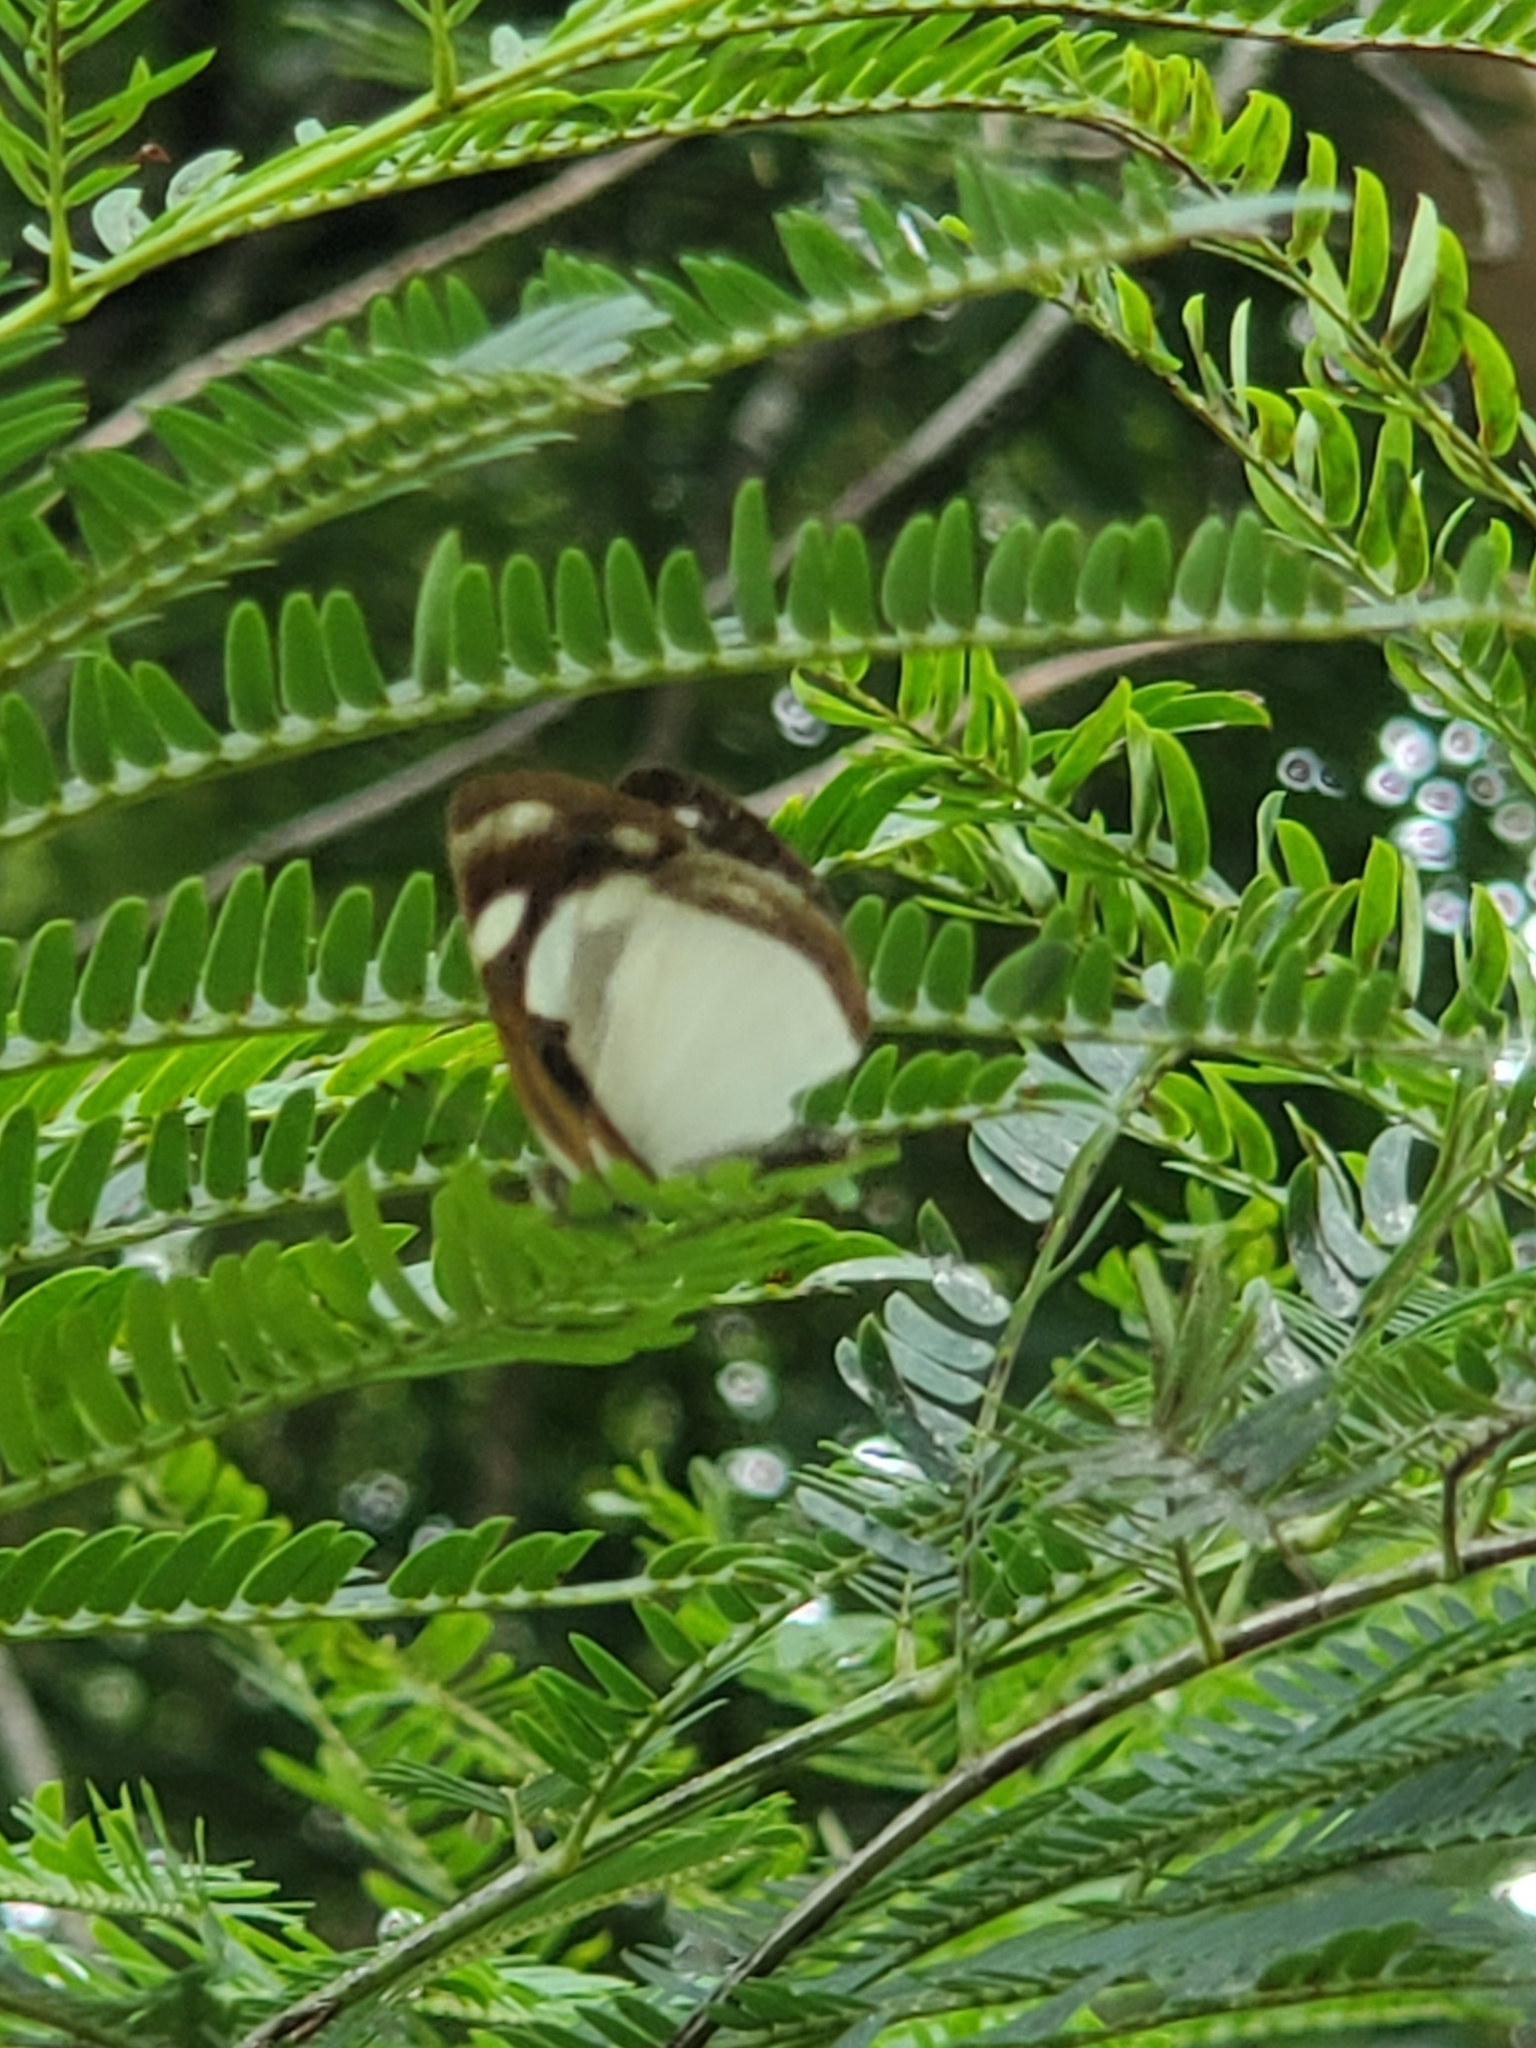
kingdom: Animalia
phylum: Arthropoda
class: Insecta
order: Lepidoptera
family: Nymphalidae
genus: Dynamine
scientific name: Dynamine agacles
